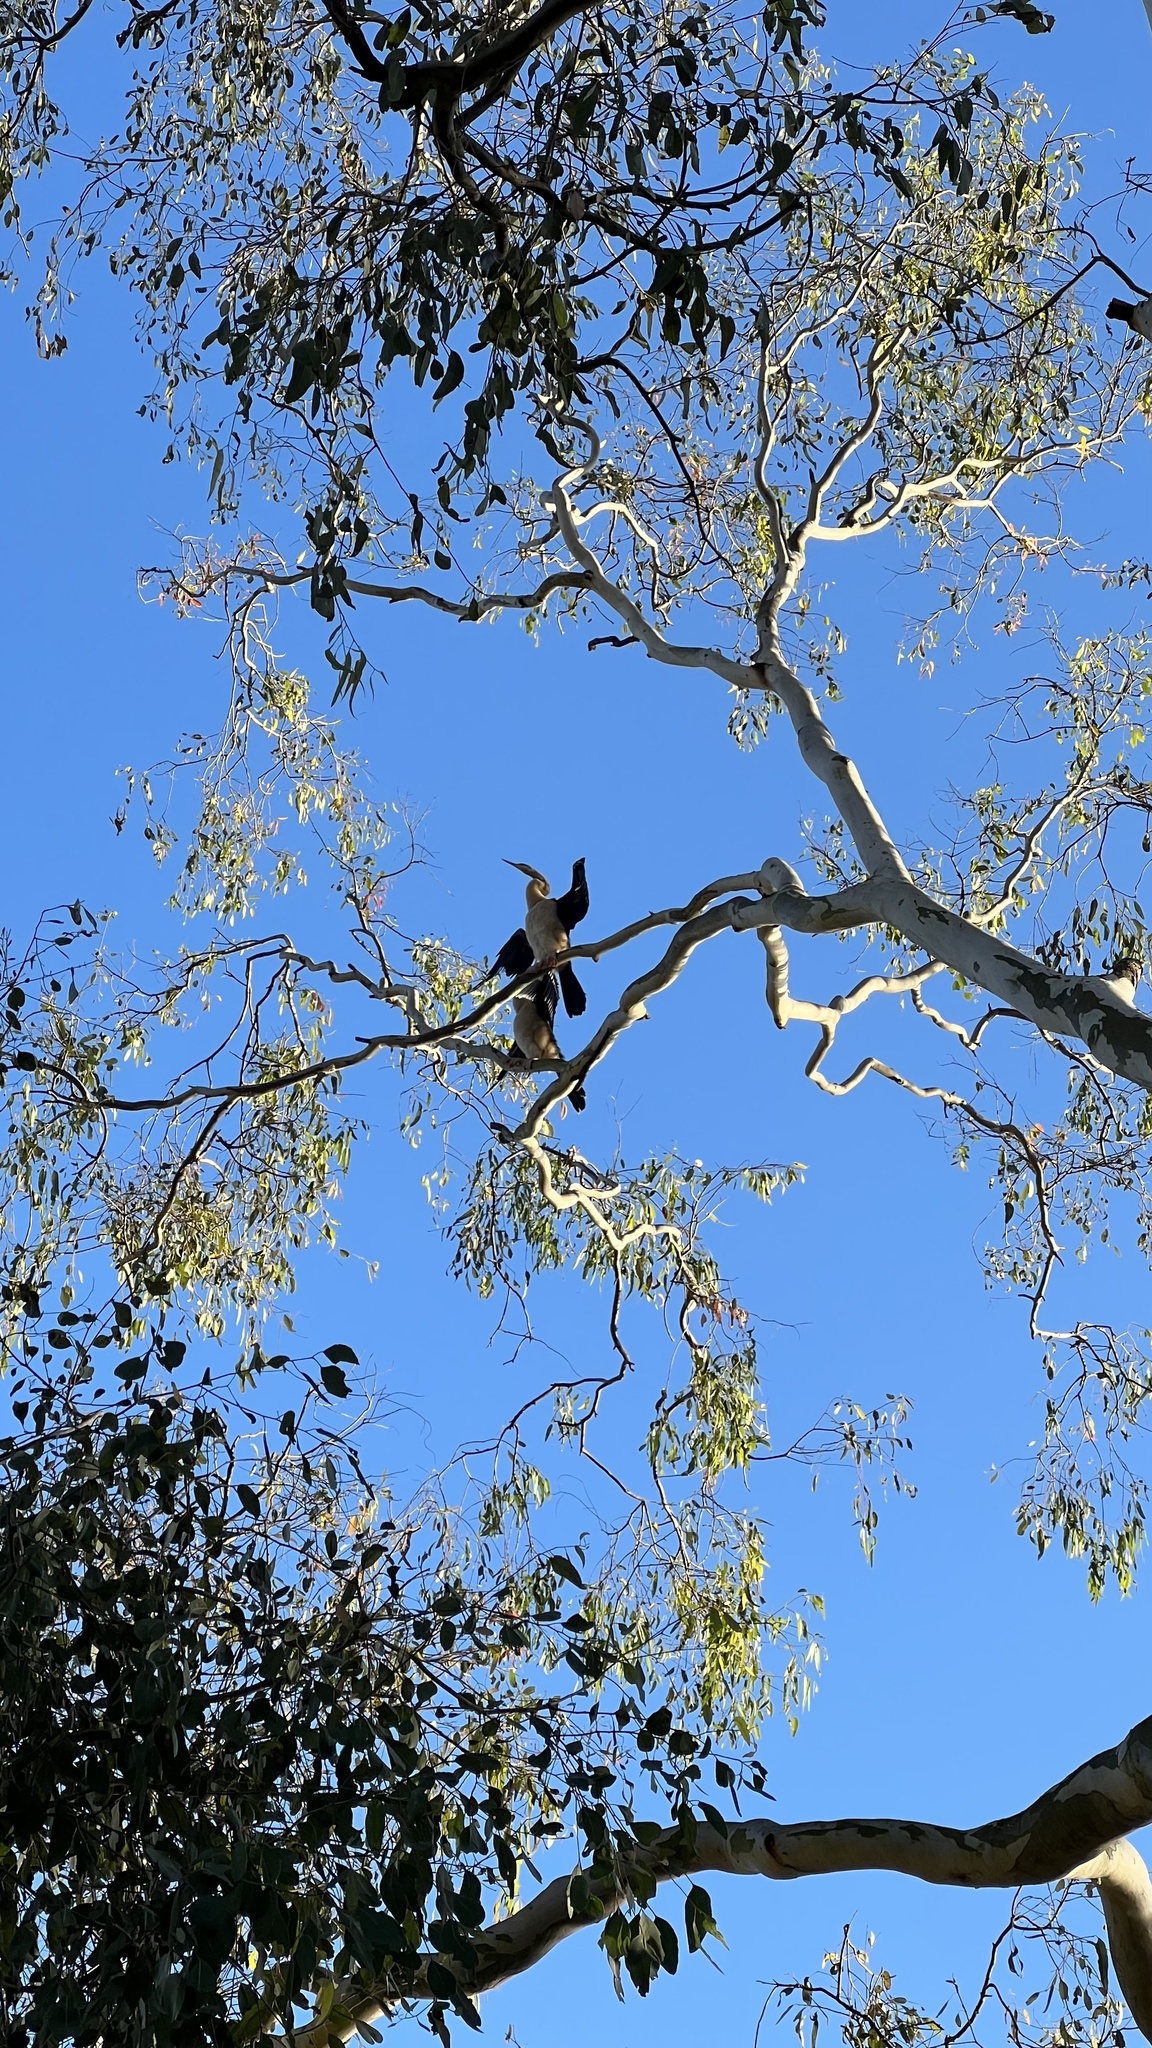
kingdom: Animalia
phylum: Chordata
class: Aves
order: Suliformes
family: Anhingidae
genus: Anhinga
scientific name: Anhinga novaehollandiae
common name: Australasian darter
